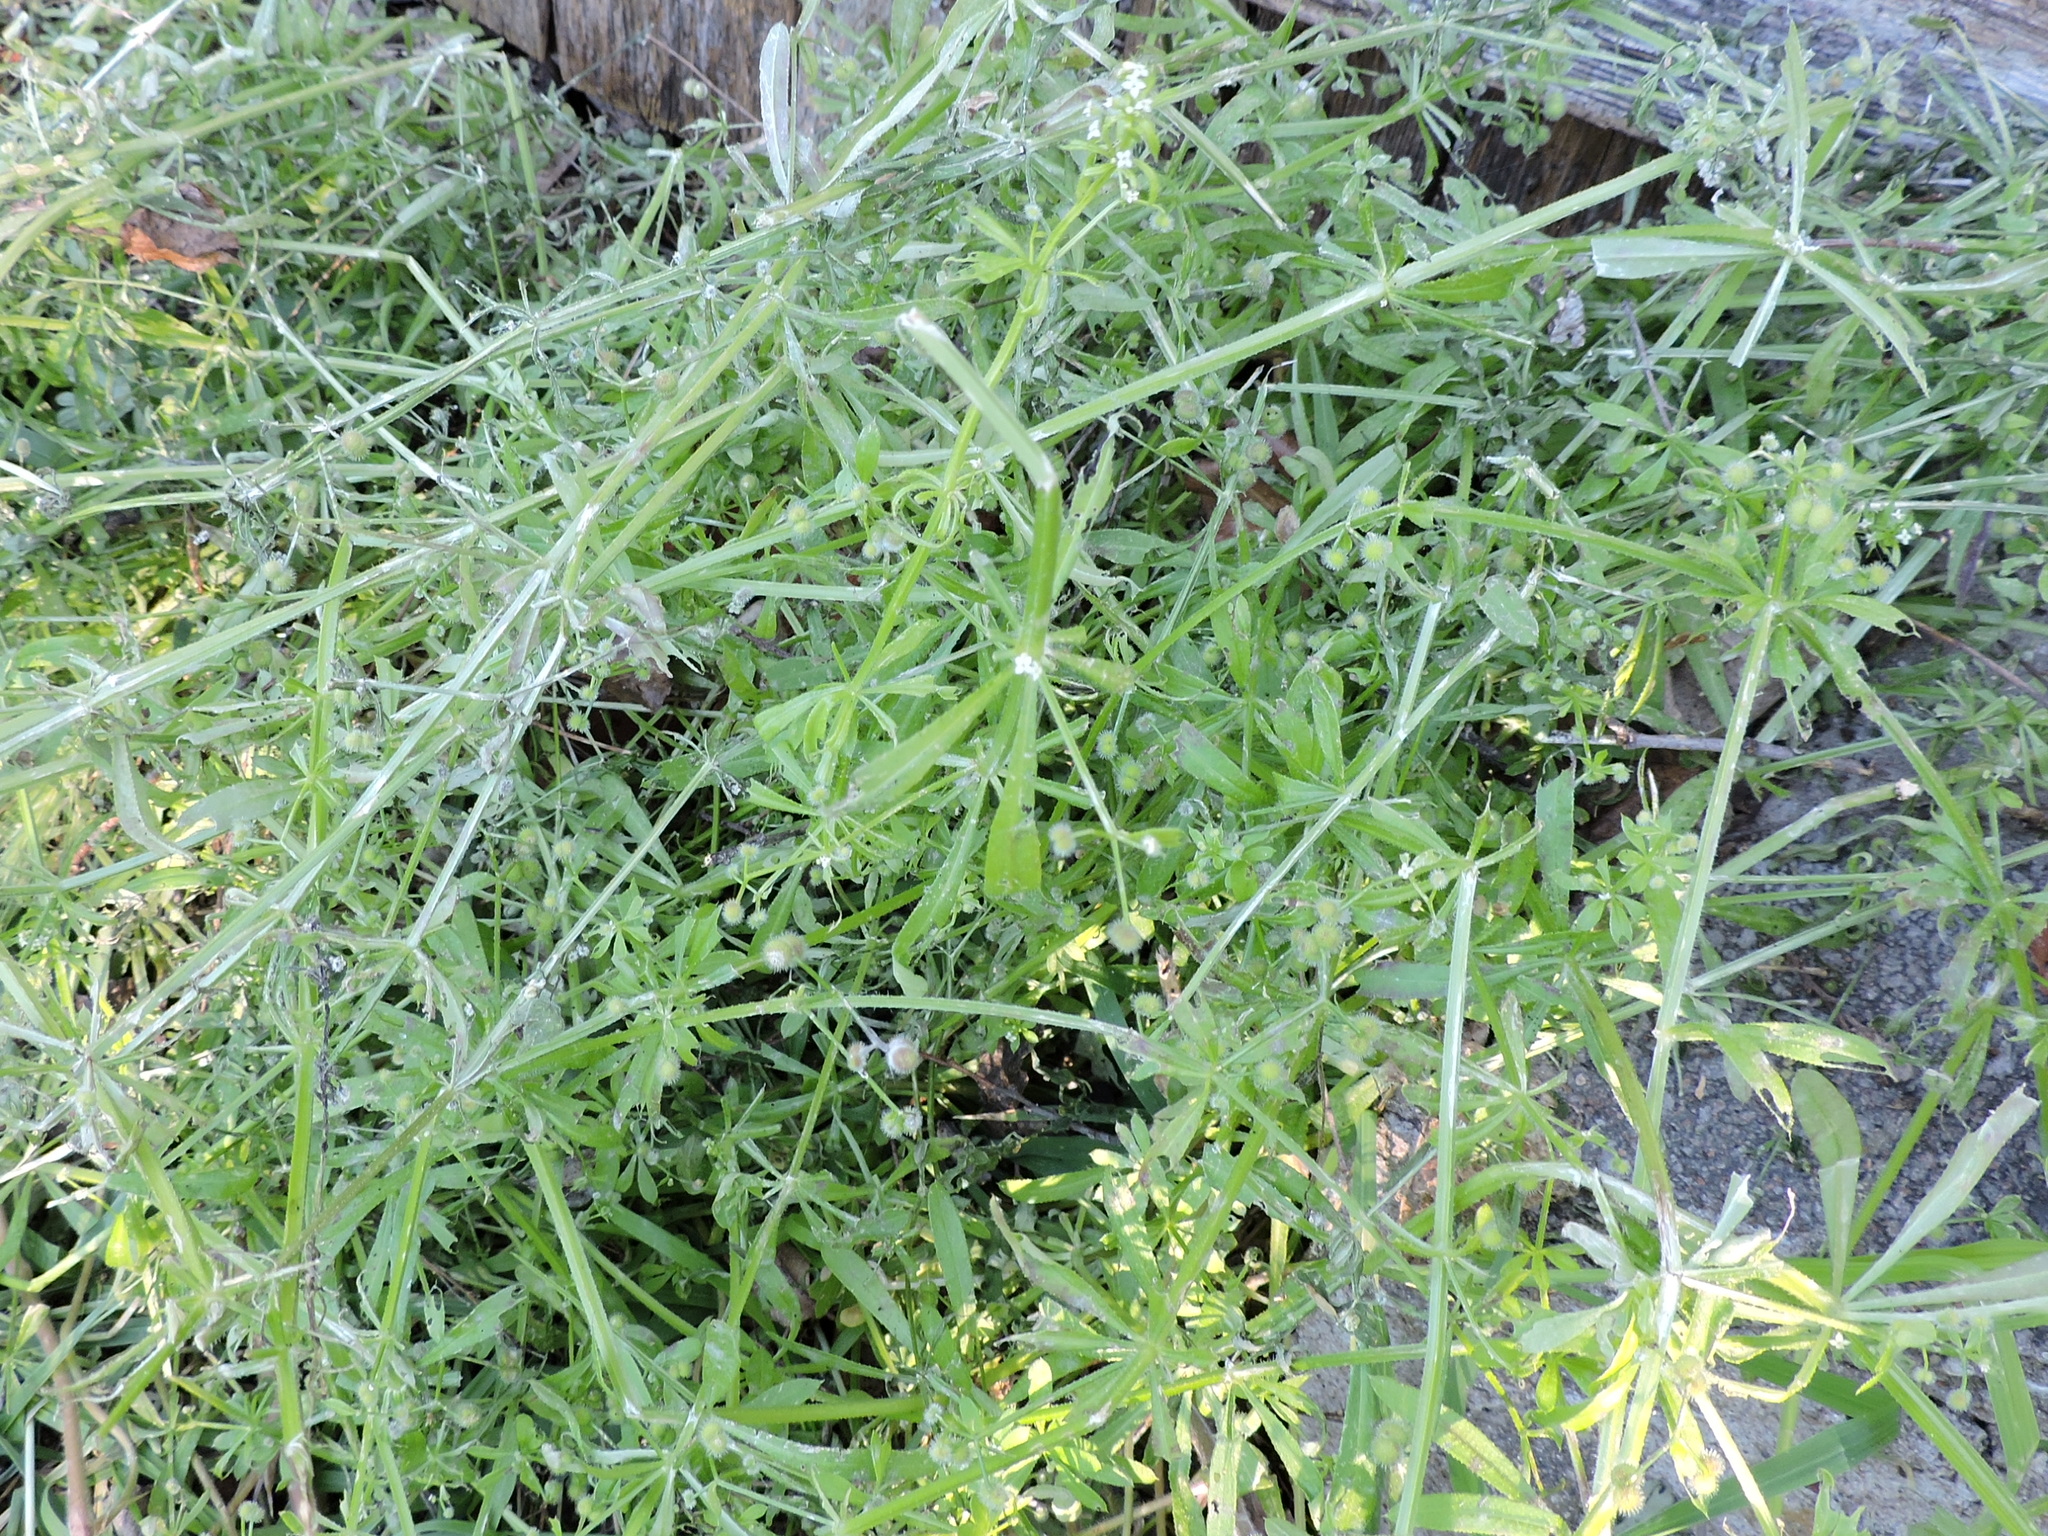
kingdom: Plantae
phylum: Tracheophyta
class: Magnoliopsida
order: Gentianales
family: Rubiaceae
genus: Galium
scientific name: Galium aparine
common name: Cleavers
